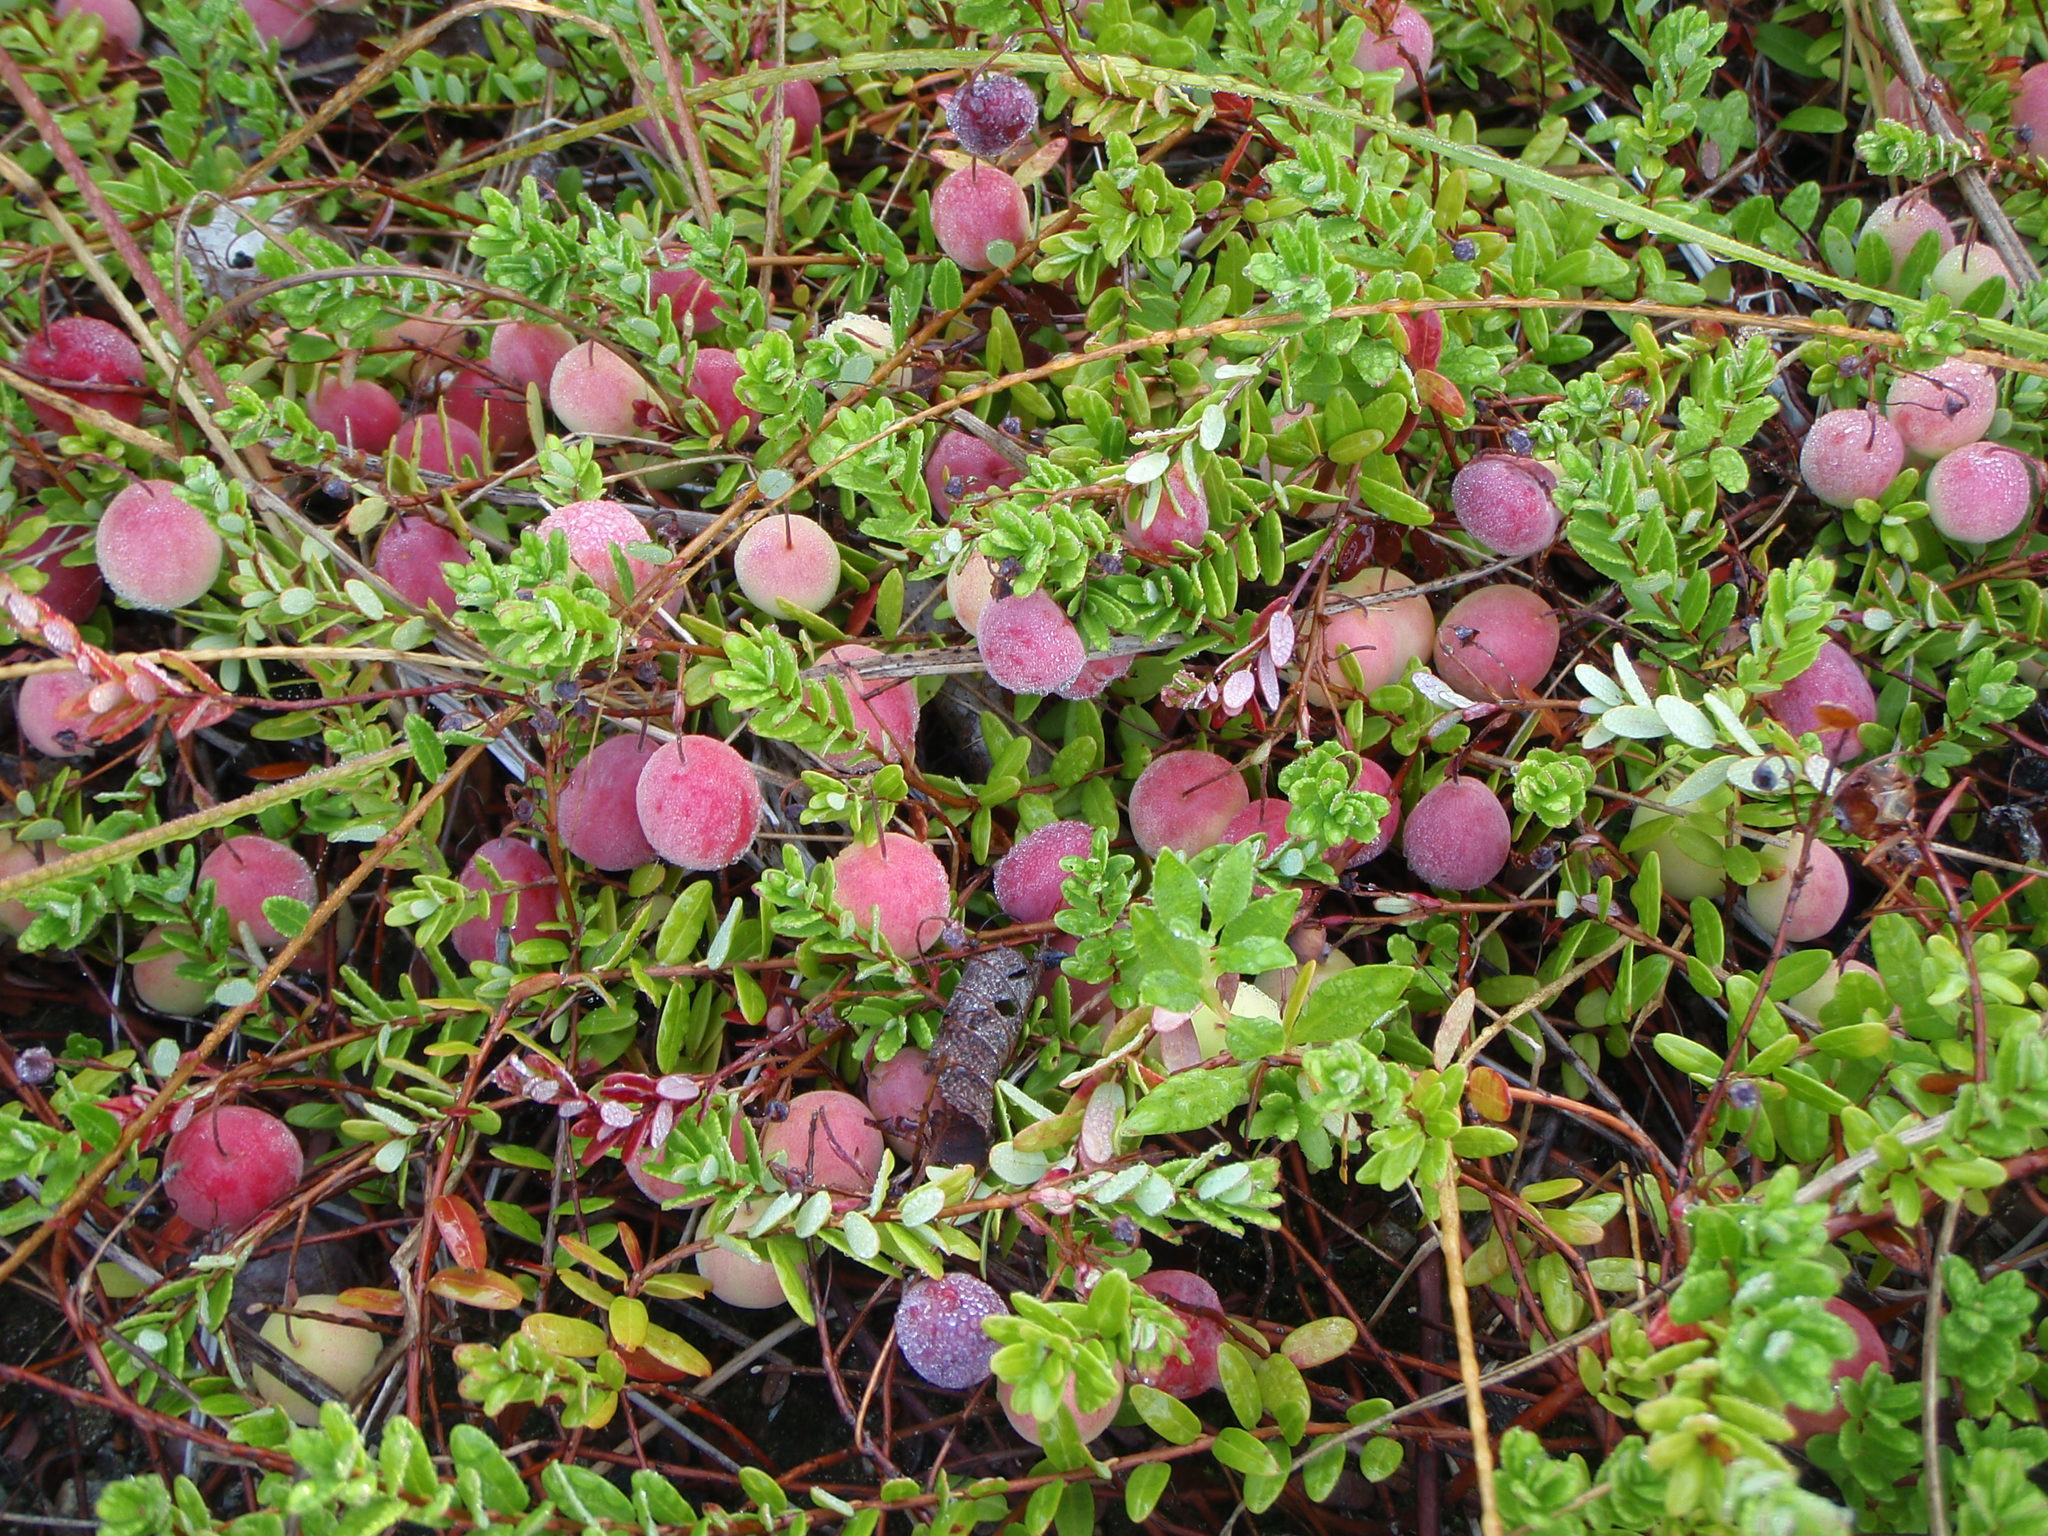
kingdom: Plantae
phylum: Tracheophyta
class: Magnoliopsida
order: Ericales
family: Ericaceae
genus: Vaccinium
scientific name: Vaccinium macrocarpon
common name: American cranberry
